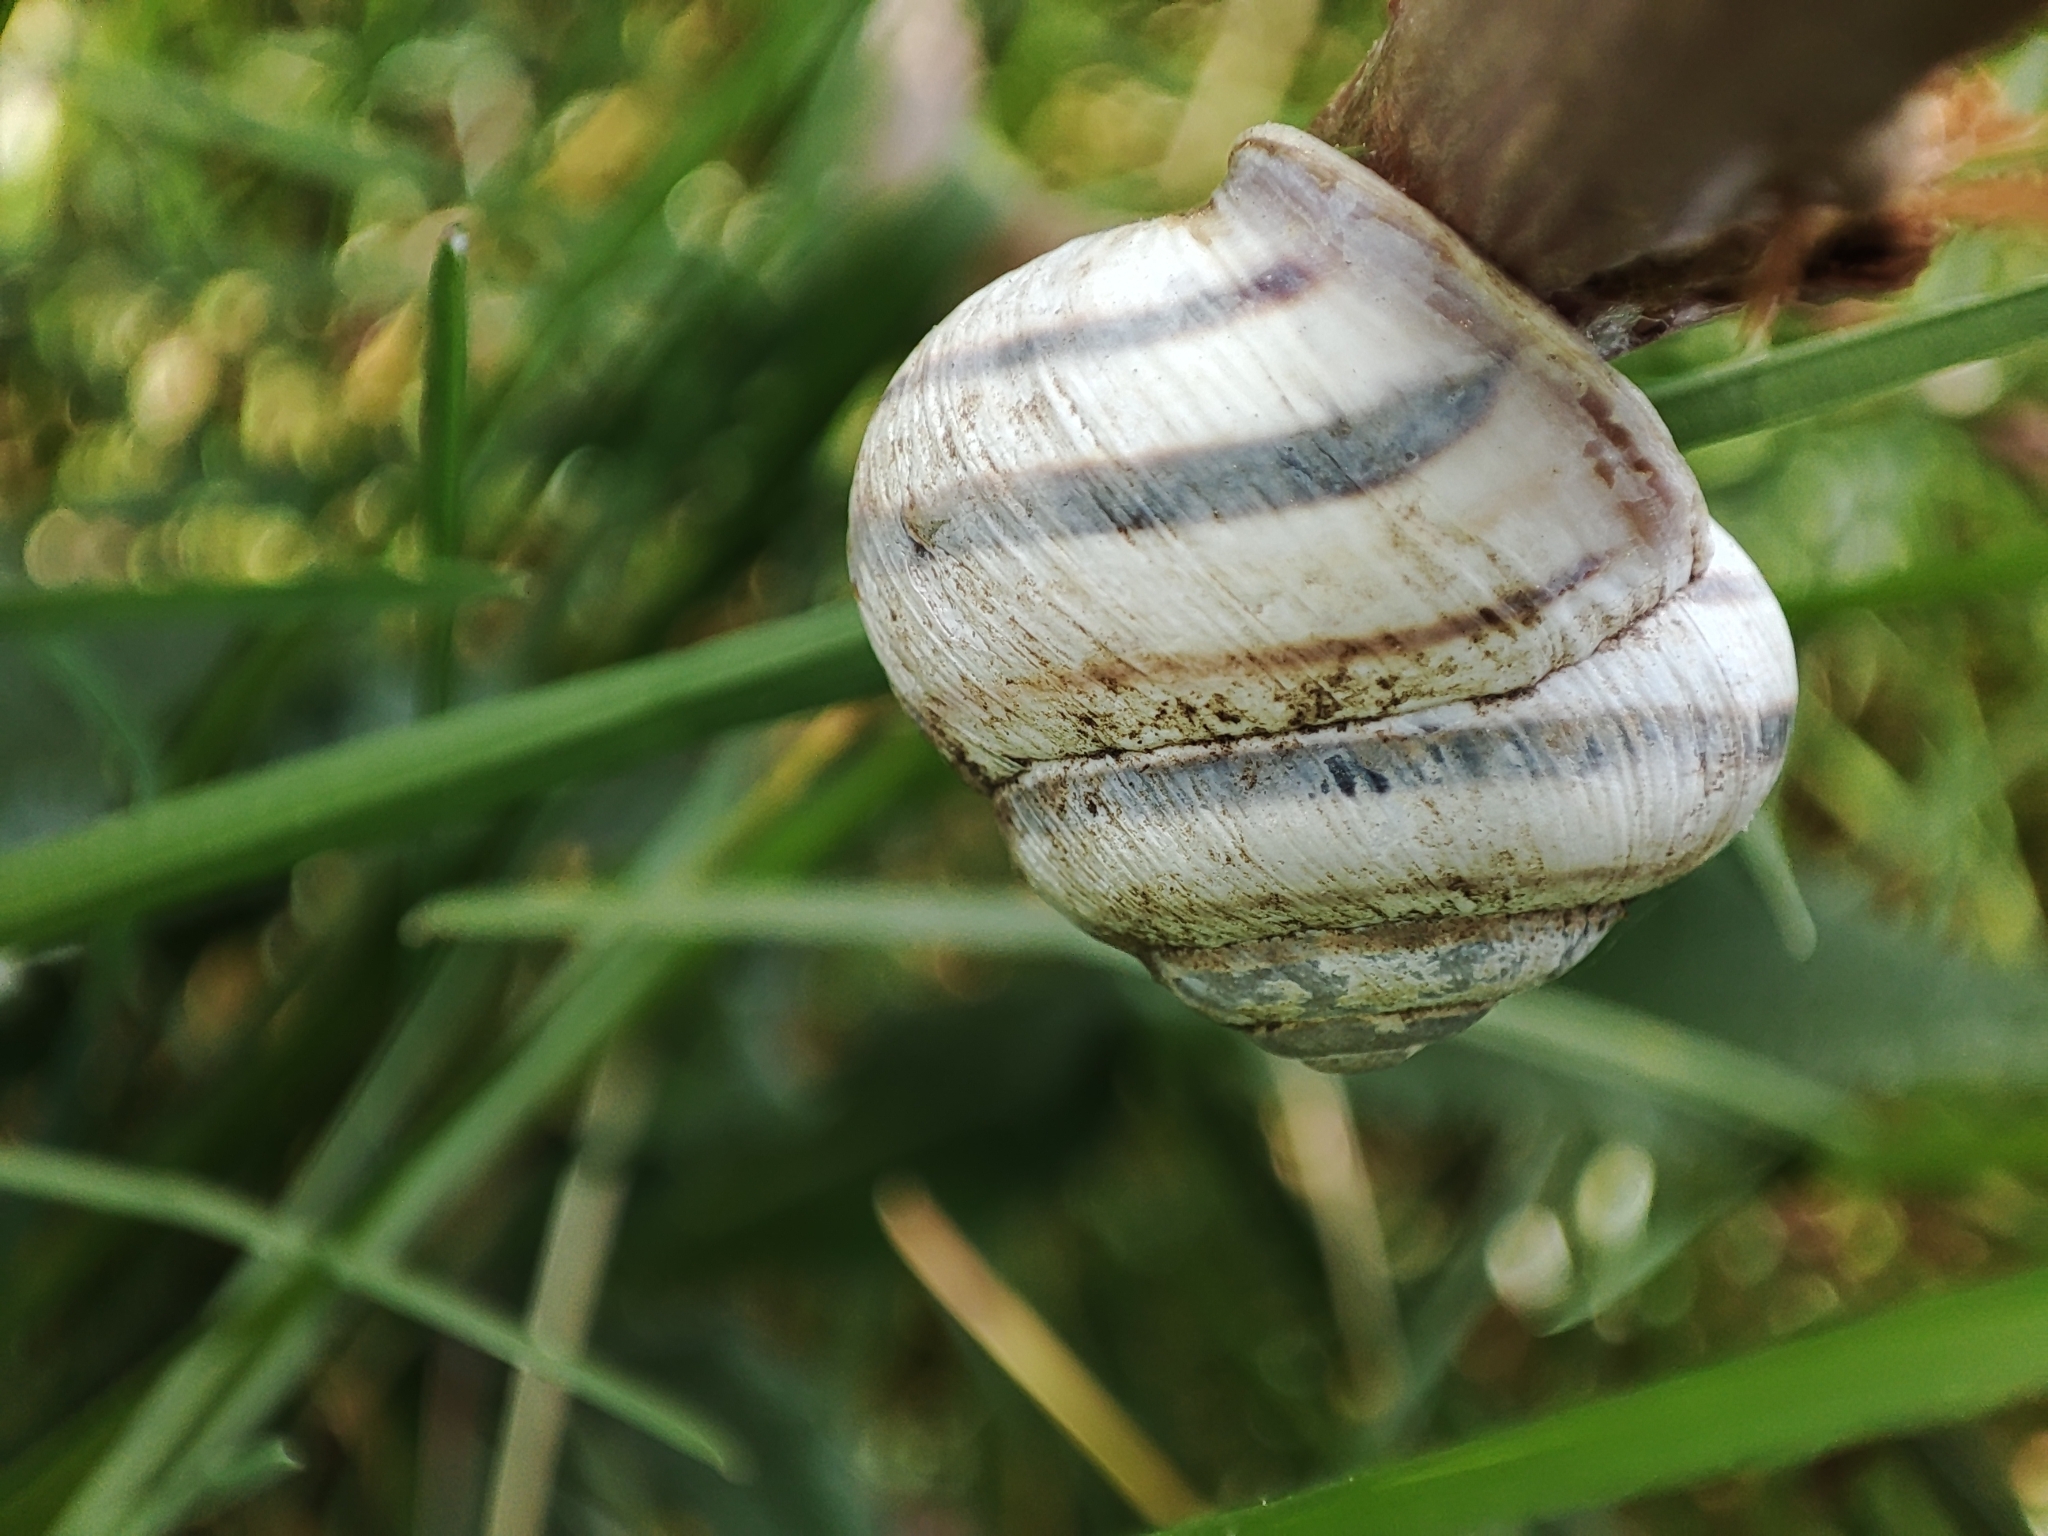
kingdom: Animalia
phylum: Mollusca
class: Gastropoda
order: Stylommatophora
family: Helicidae
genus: Caucasotachea
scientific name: Caucasotachea vindobonensis
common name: European helicid land snail
